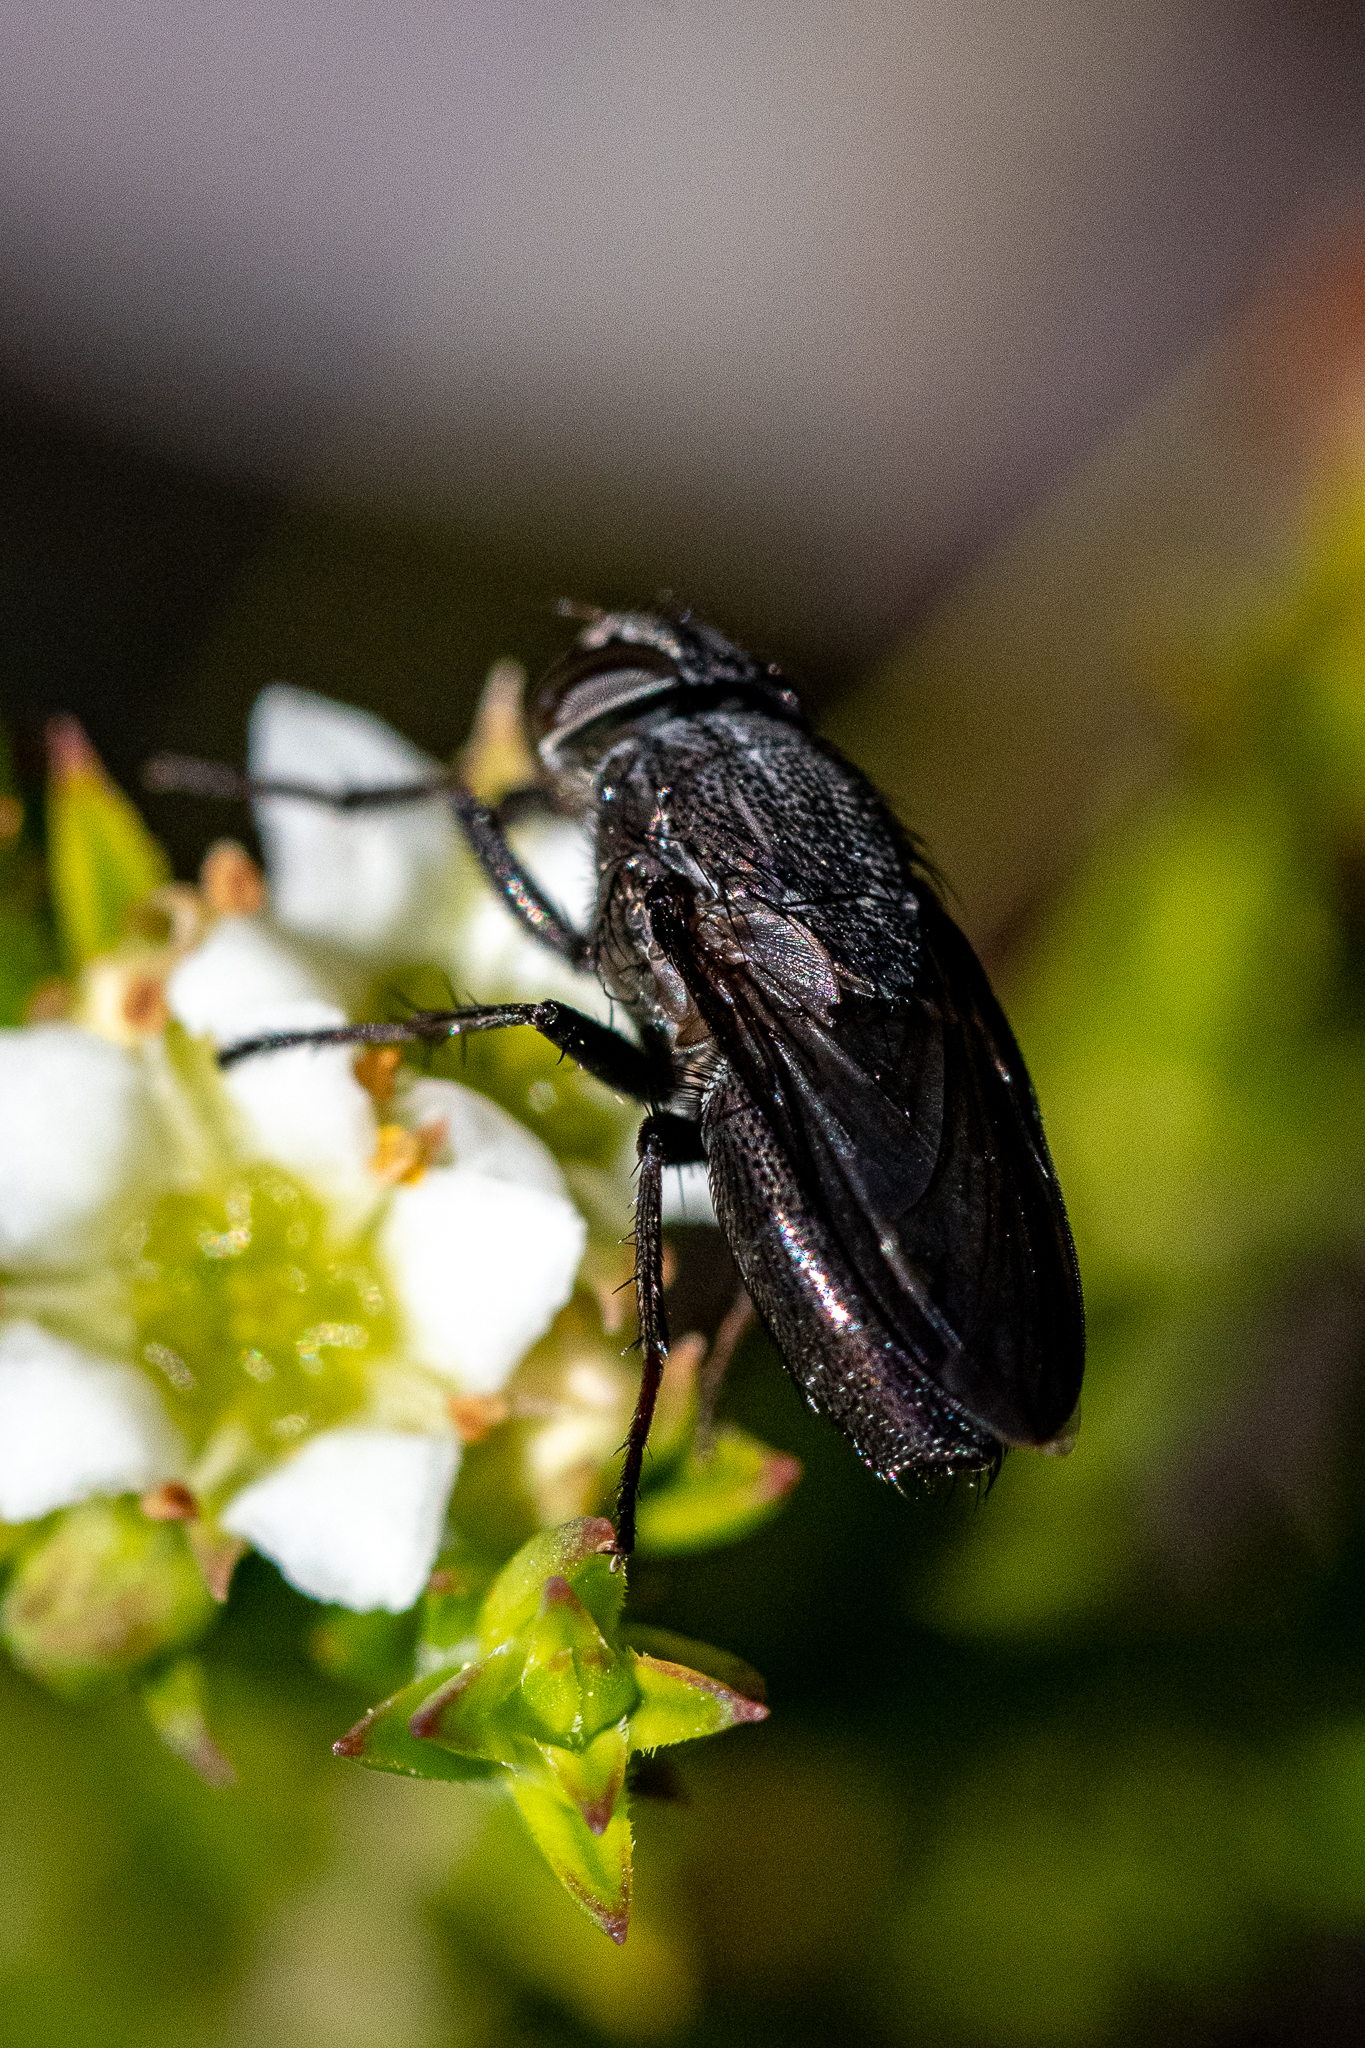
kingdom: Animalia
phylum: Arthropoda
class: Insecta
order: Diptera
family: Calliphoridae
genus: Cosmina
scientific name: Cosmina fuscipennis
